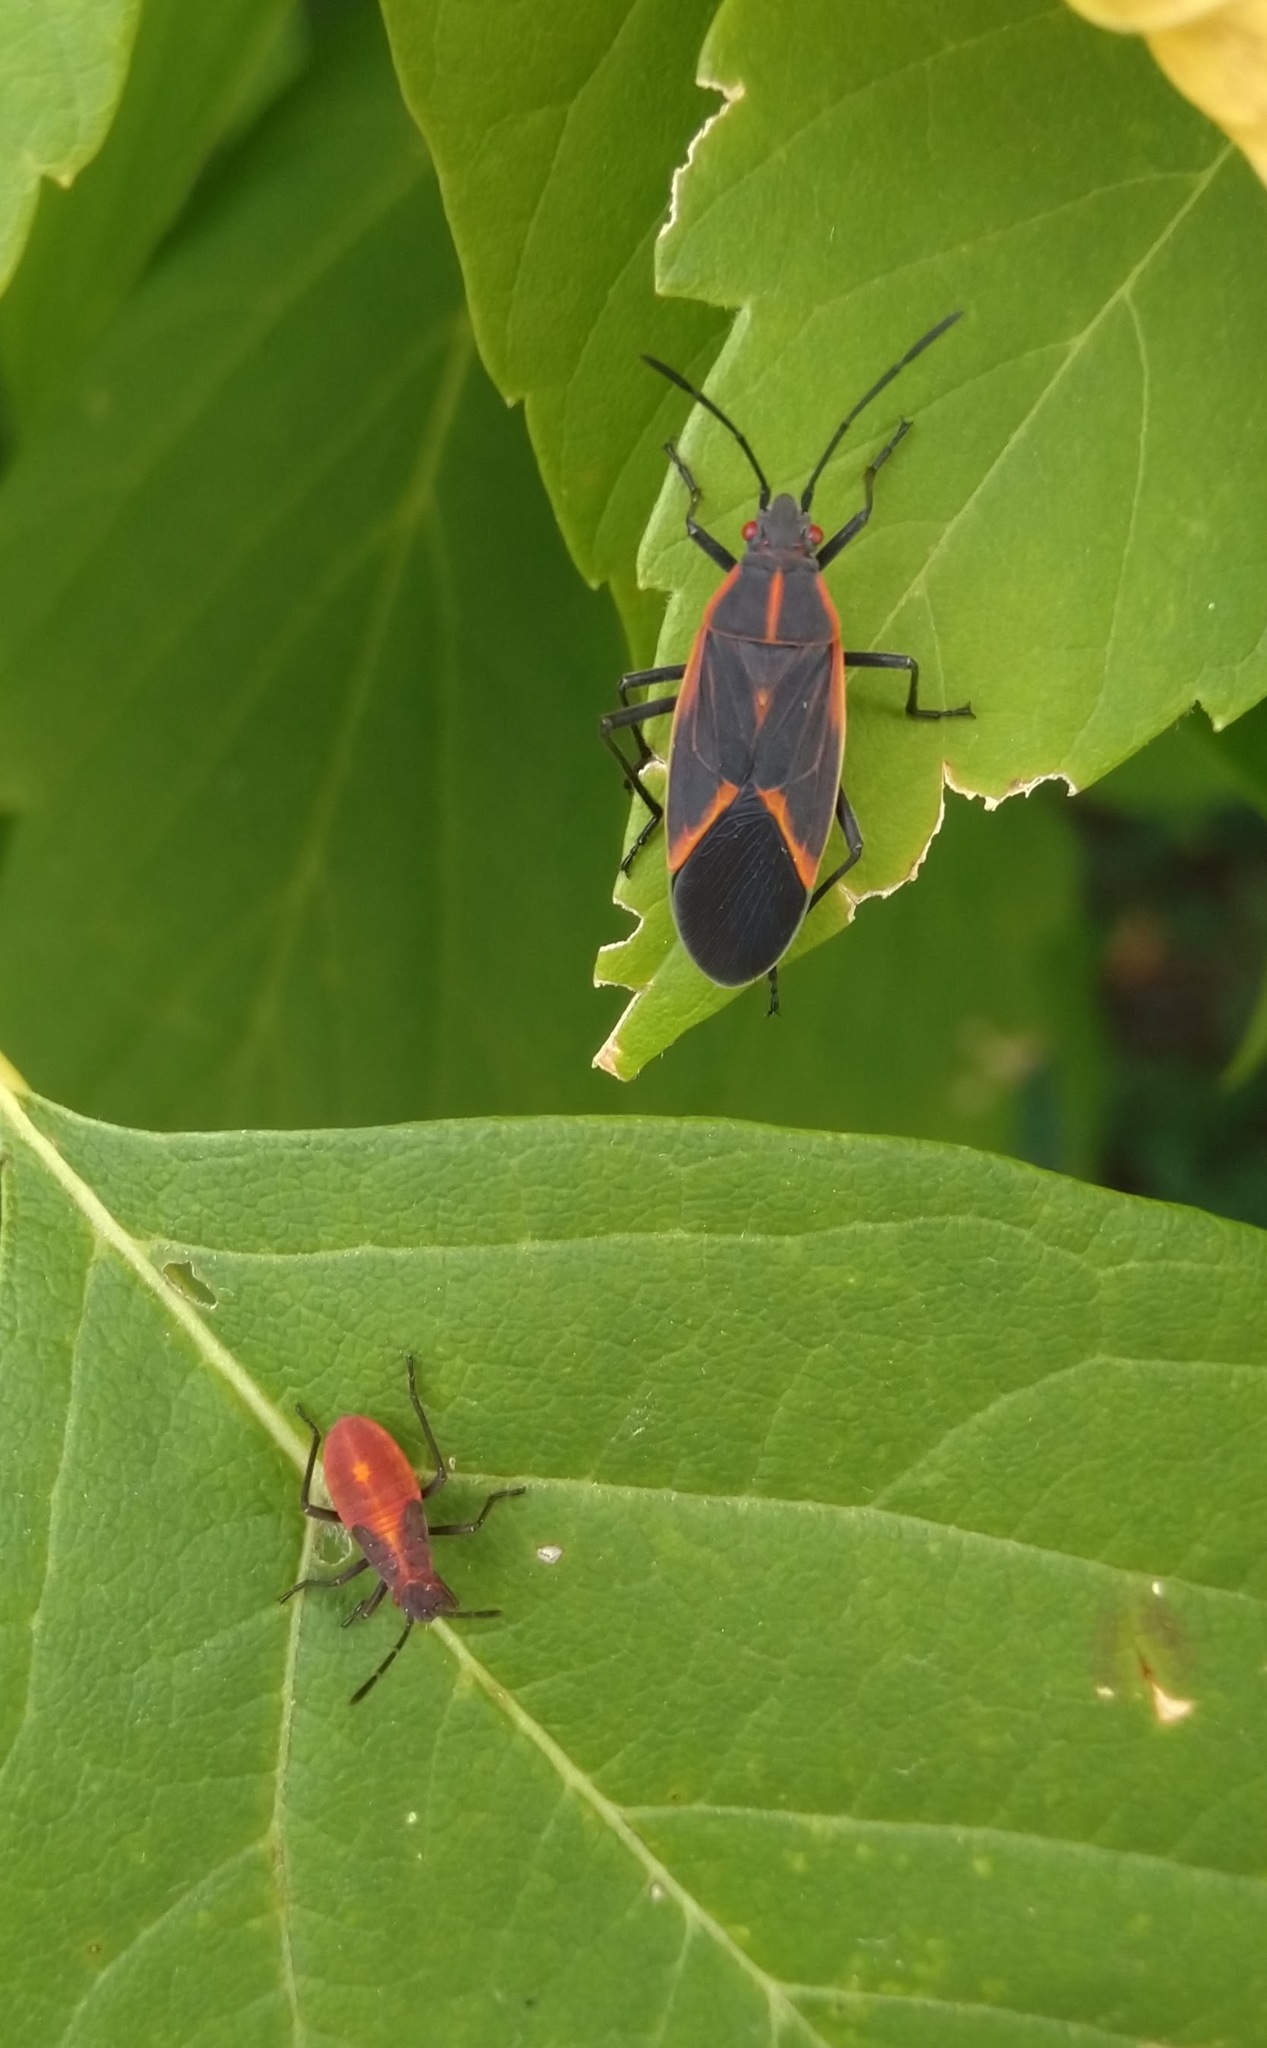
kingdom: Animalia
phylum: Arthropoda
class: Insecta
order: Hemiptera
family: Rhopalidae
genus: Boisea
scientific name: Boisea trivittata
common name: Boxelder bug
